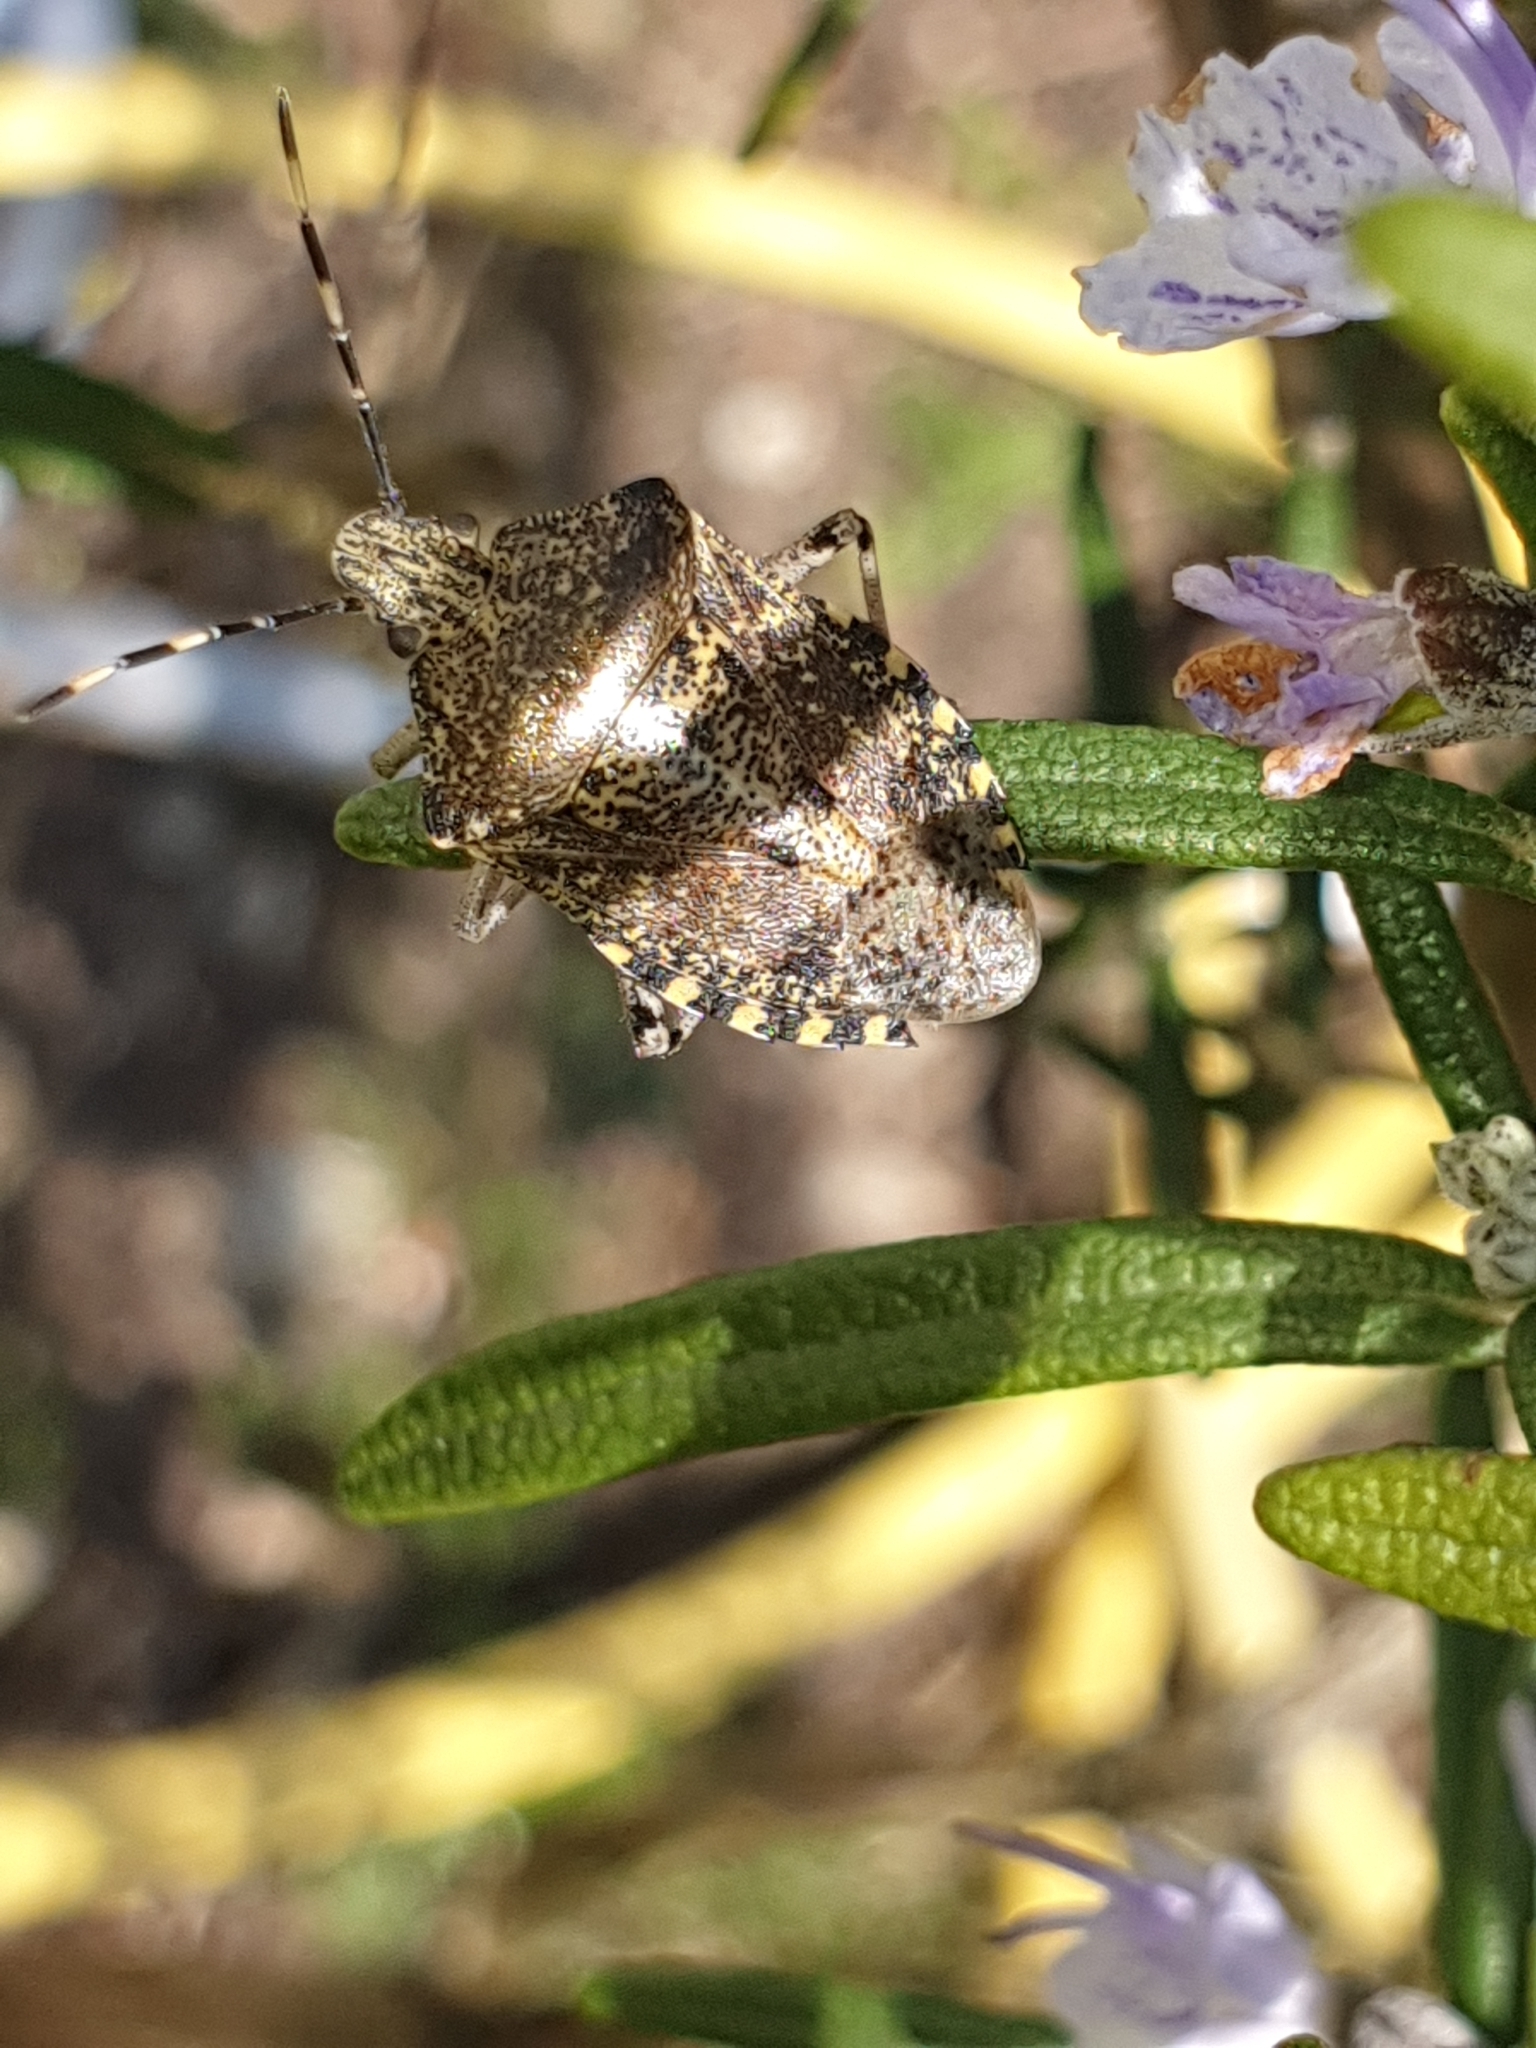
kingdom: Animalia
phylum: Arthropoda
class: Insecta
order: Hemiptera
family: Pentatomidae
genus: Rhaphigaster
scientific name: Rhaphigaster nebulosa
